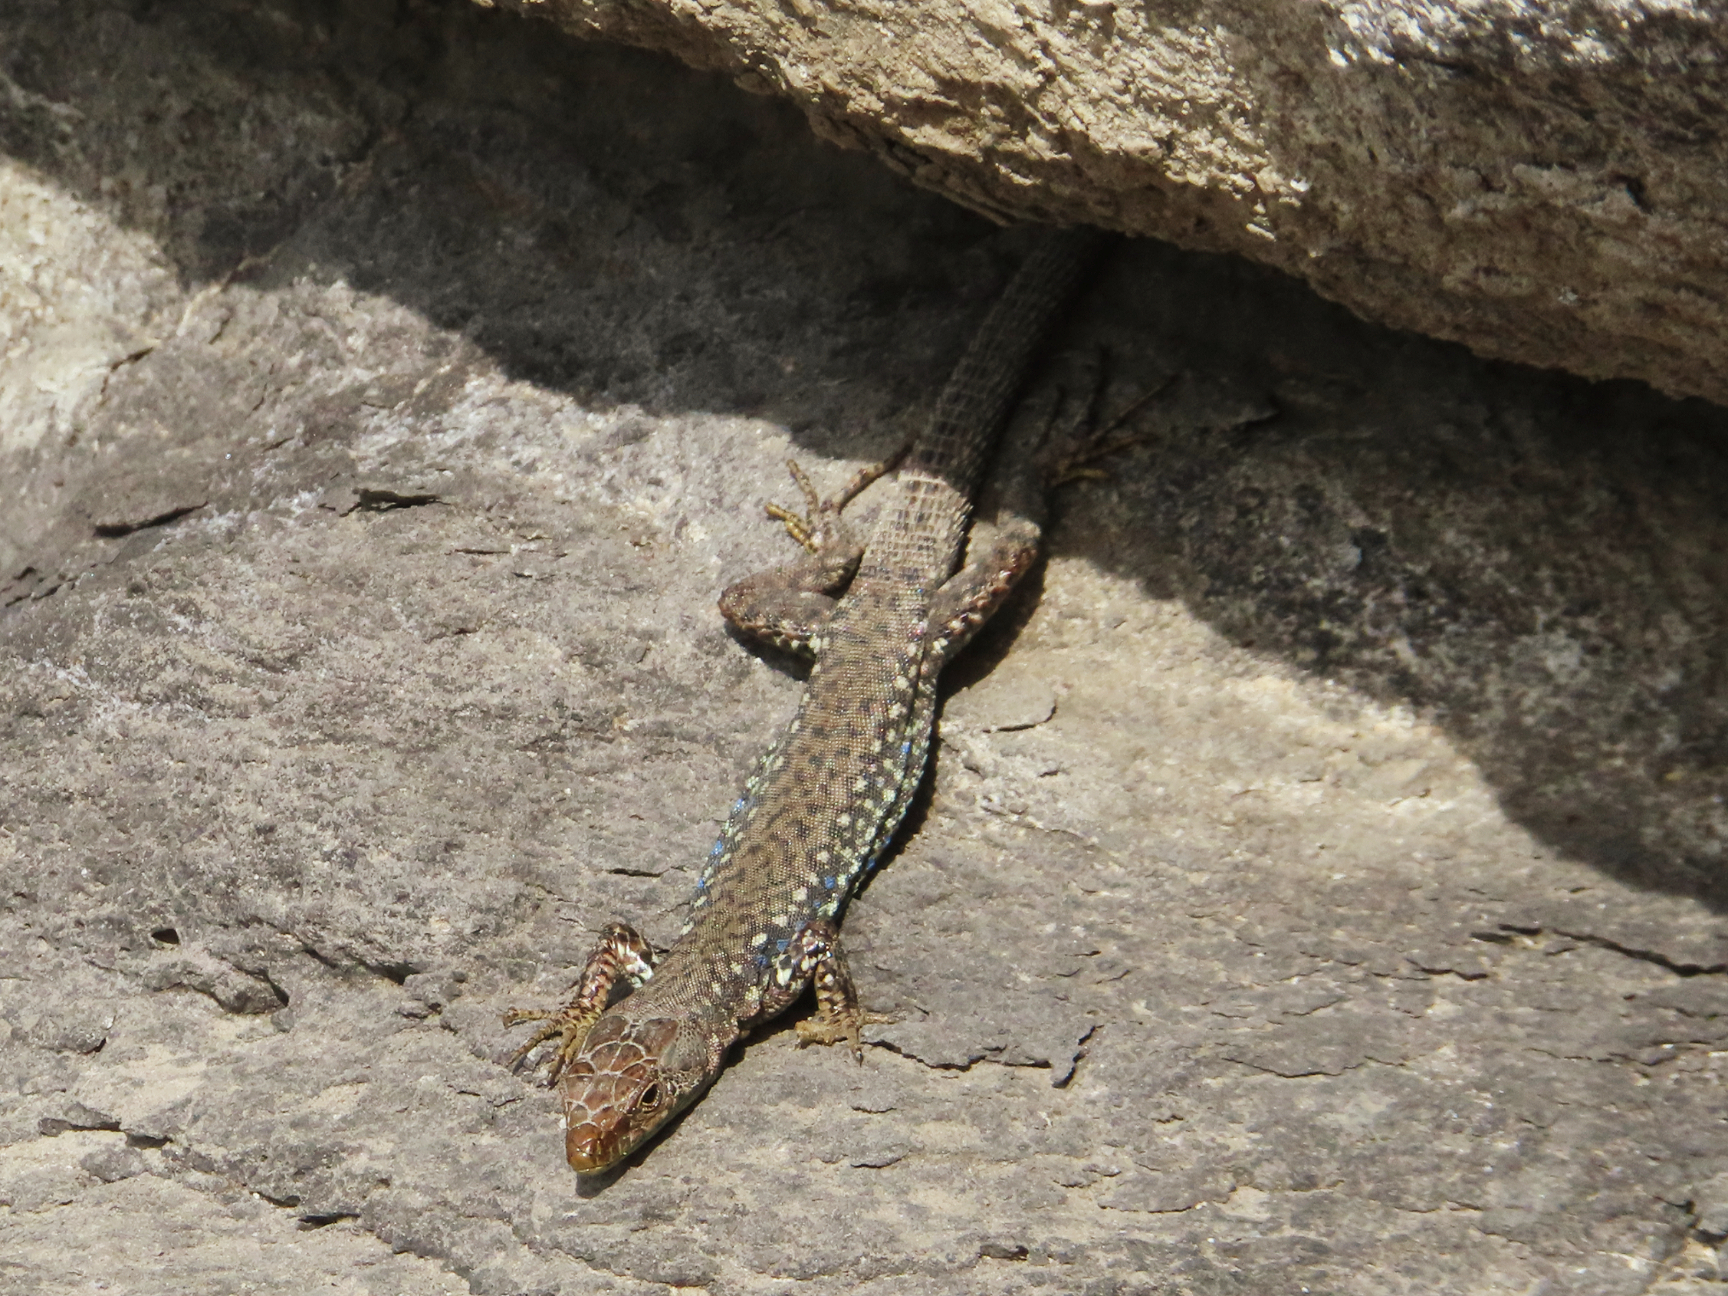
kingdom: Animalia
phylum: Chordata
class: Squamata
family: Lacertidae
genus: Darevskia
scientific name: Darevskia
